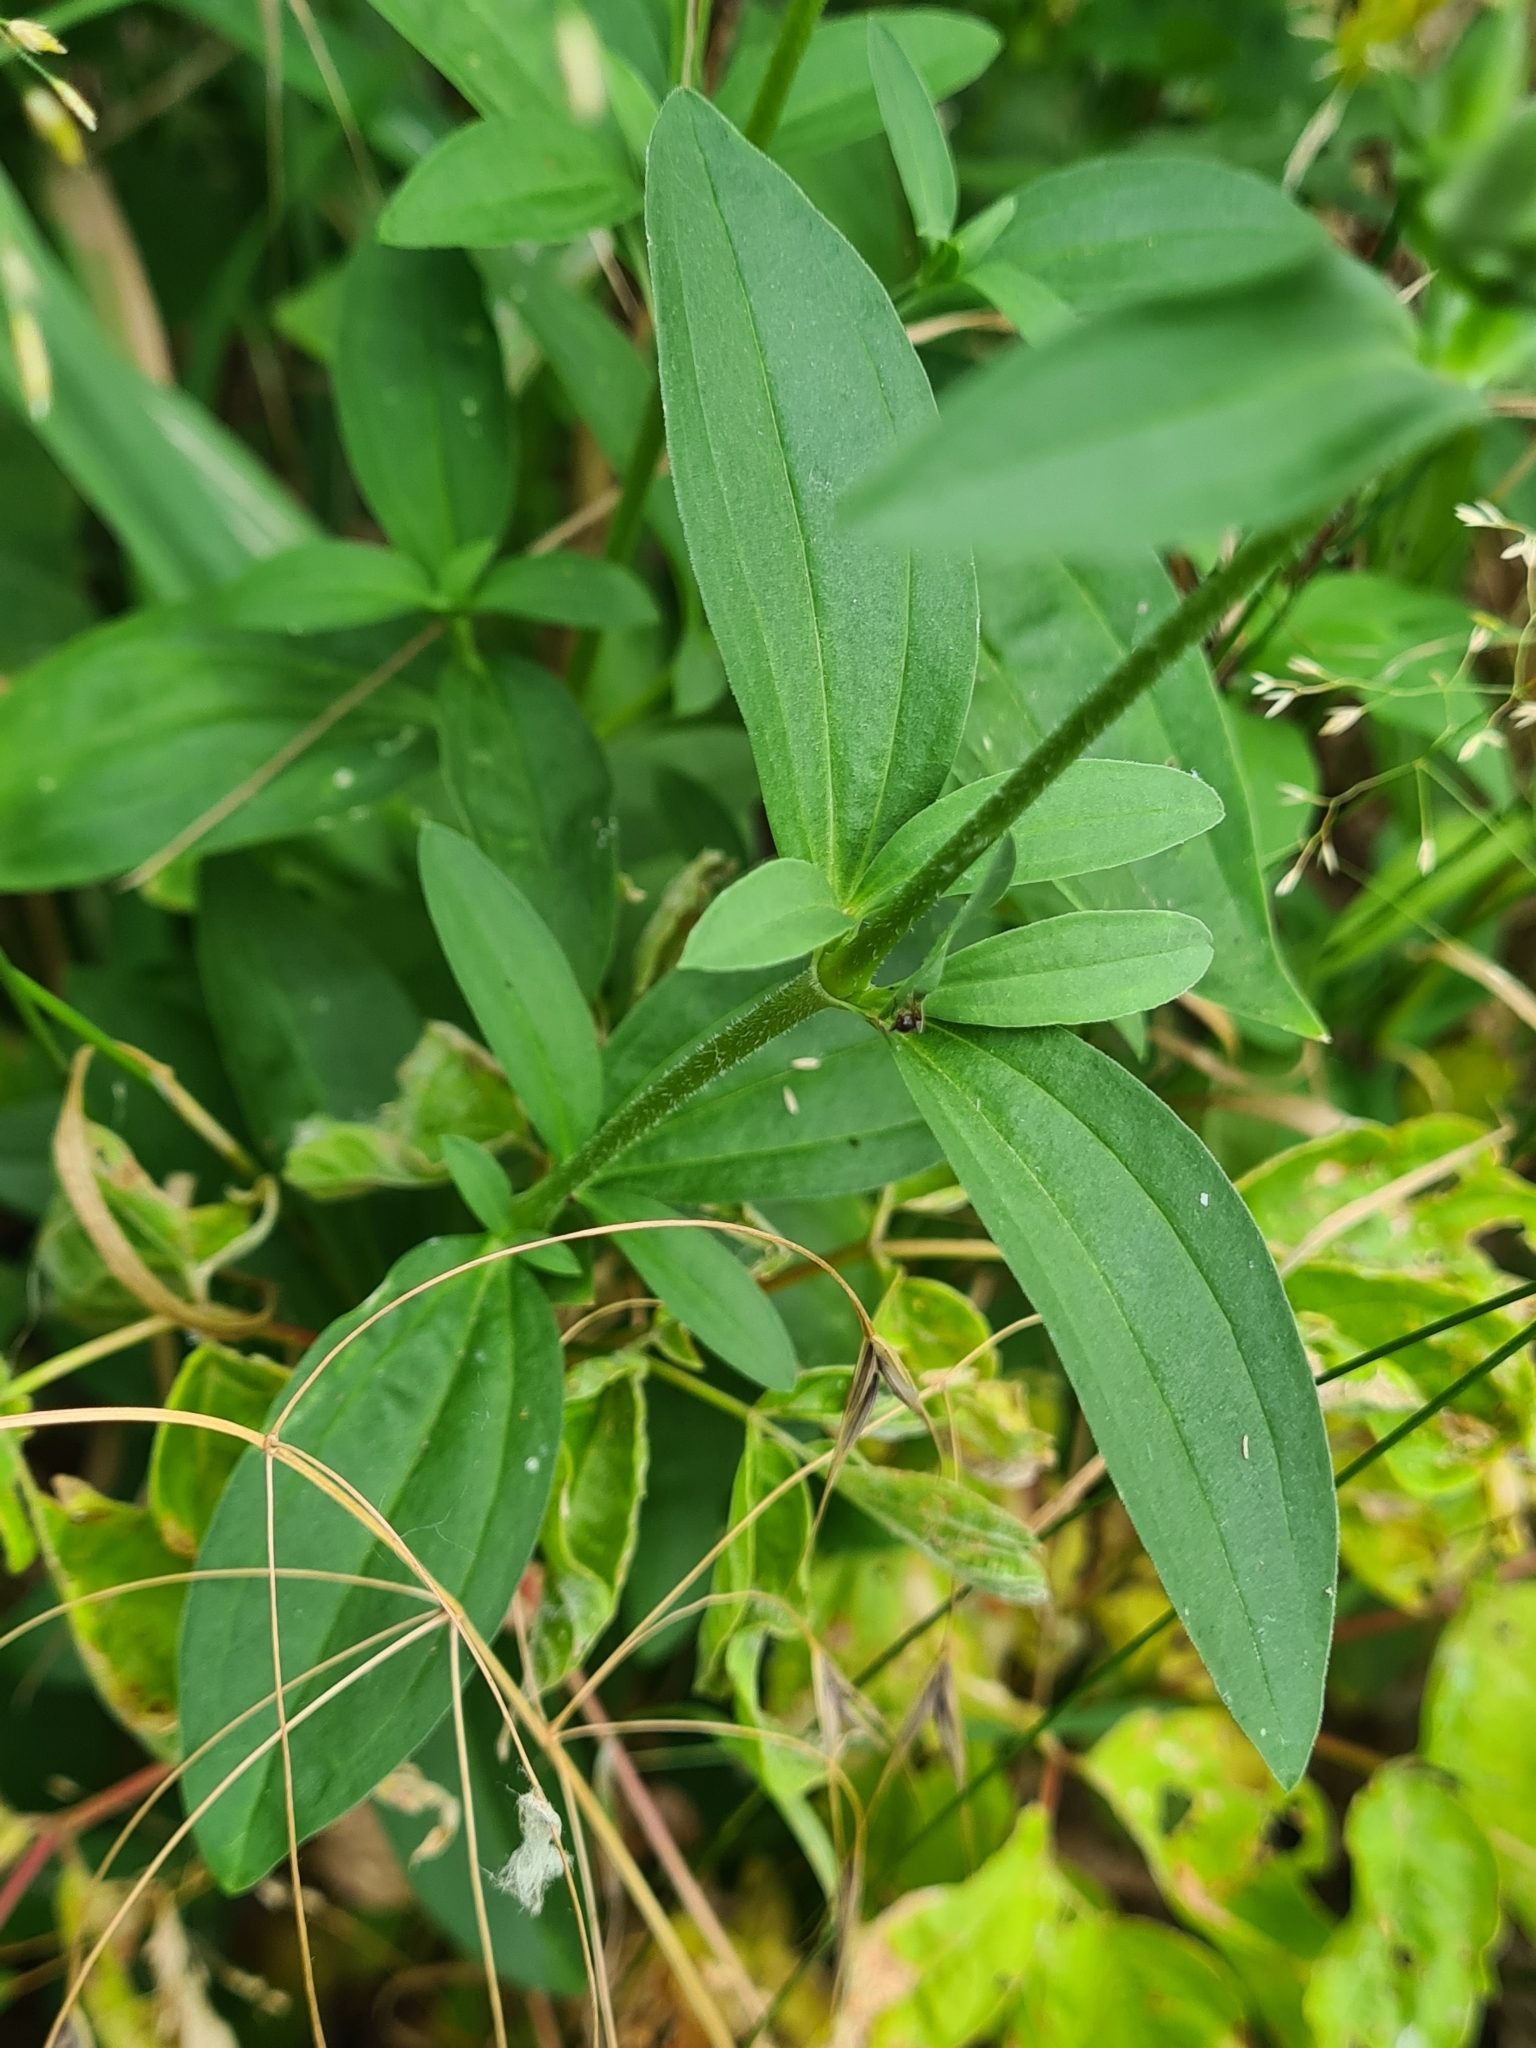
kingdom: Plantae
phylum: Tracheophyta
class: Magnoliopsida
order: Caryophyllales
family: Caryophyllaceae
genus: Saponaria
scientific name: Saponaria officinalis
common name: Soapwort
